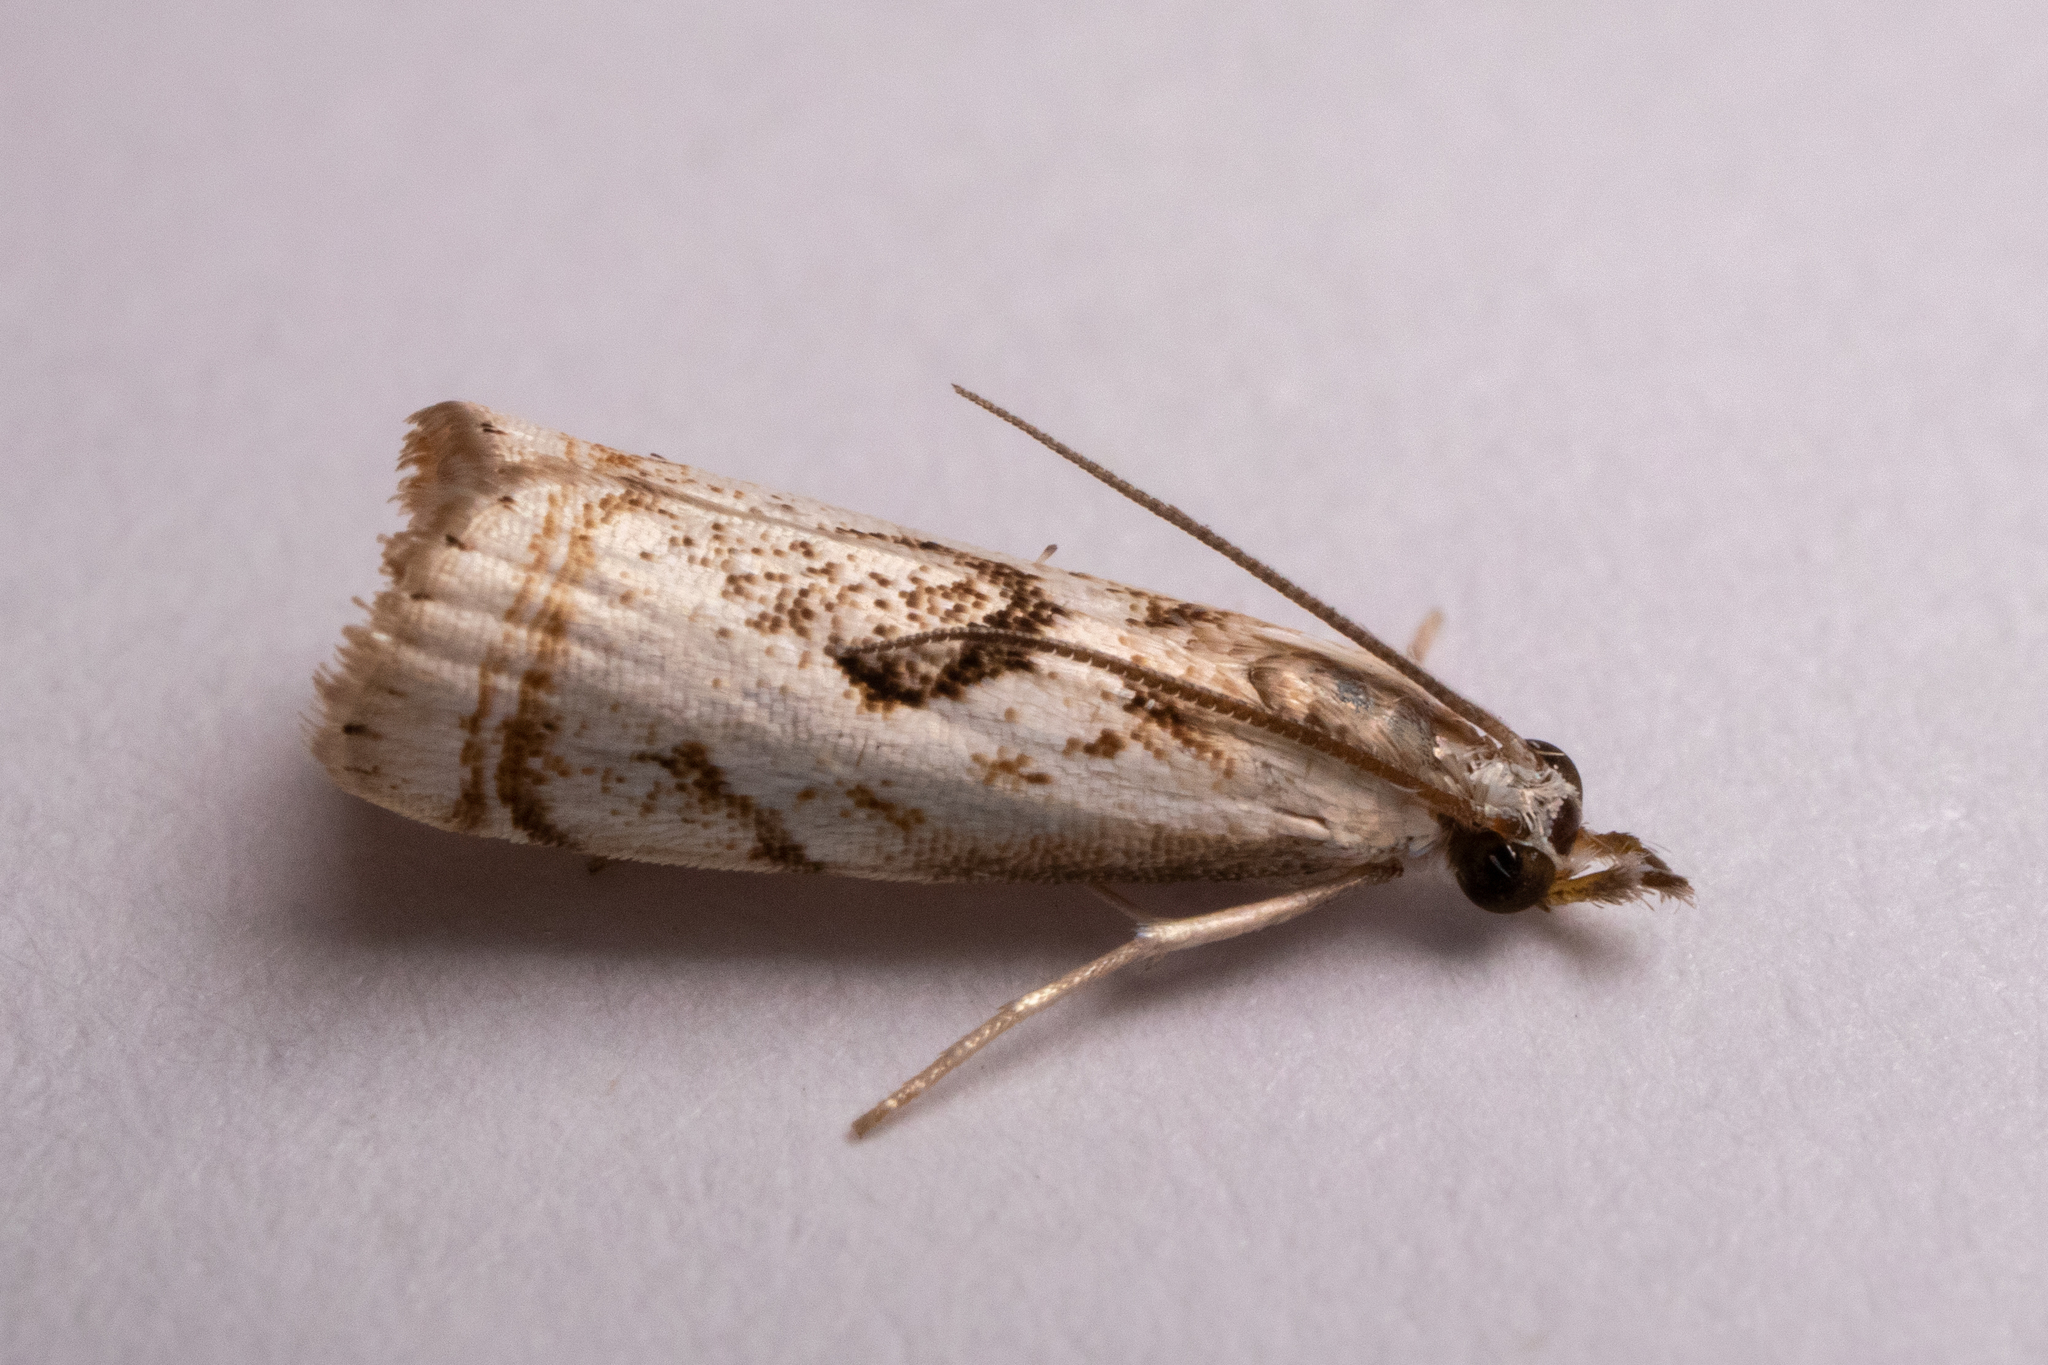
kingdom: Animalia
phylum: Arthropoda
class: Insecta
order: Lepidoptera
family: Crambidae
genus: Microcrambus
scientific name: Microcrambus elegans
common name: Elegant grass-veneer
